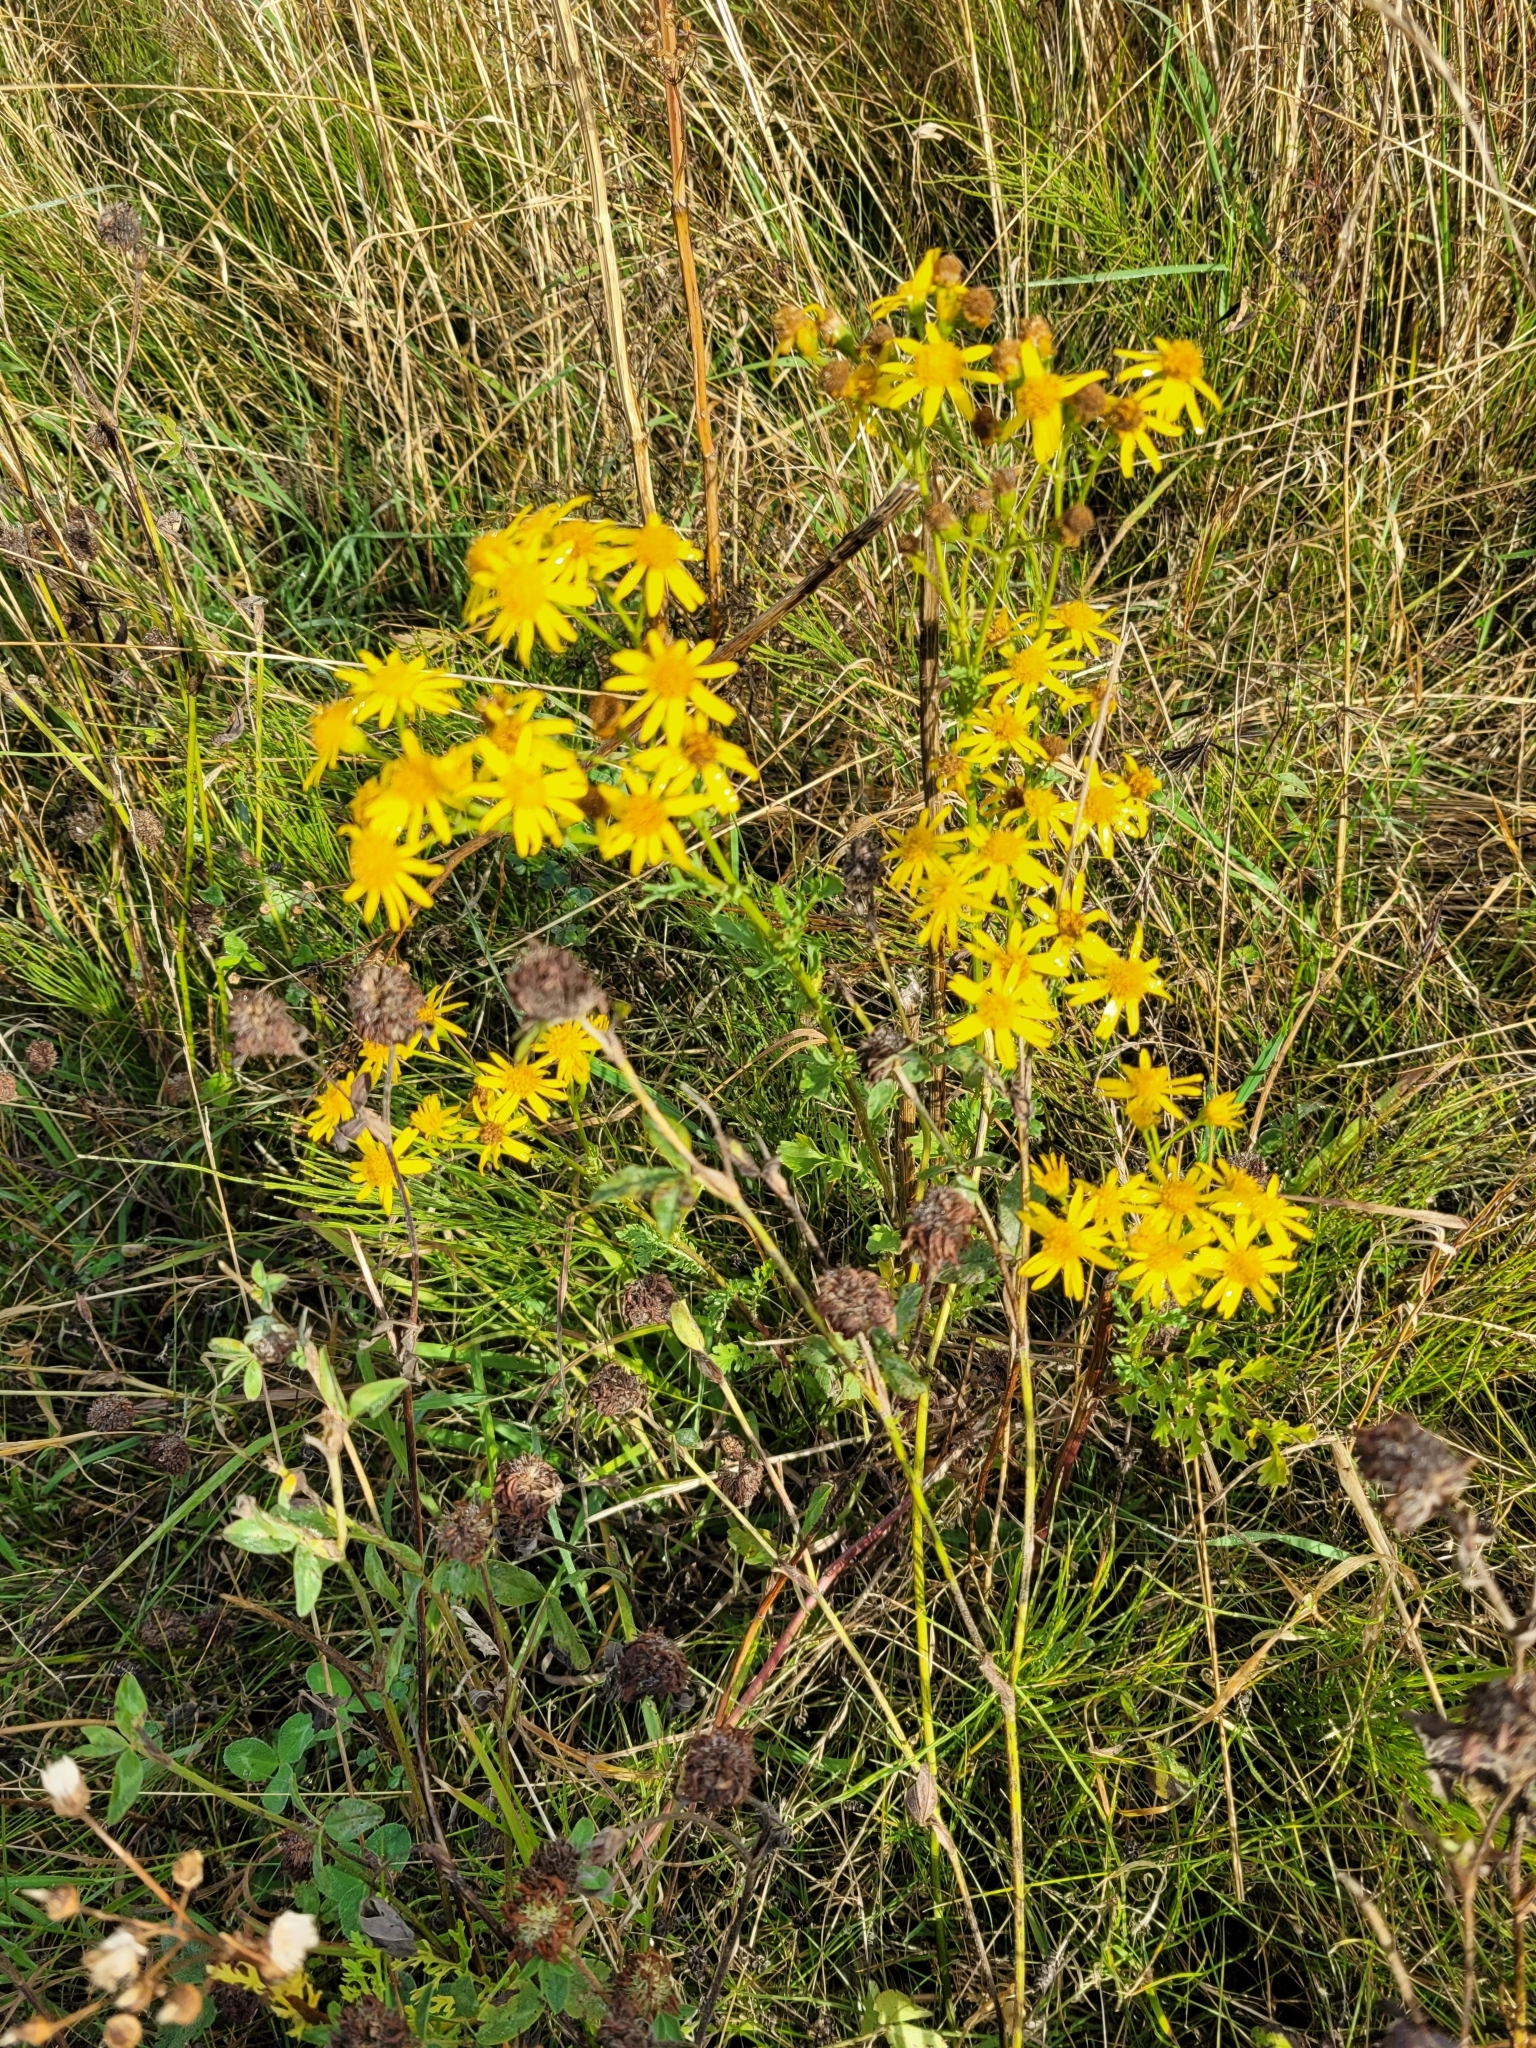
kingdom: Plantae
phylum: Tracheophyta
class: Magnoliopsida
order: Asterales
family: Asteraceae
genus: Jacobaea
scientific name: Jacobaea vulgaris
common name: Stinking willie
